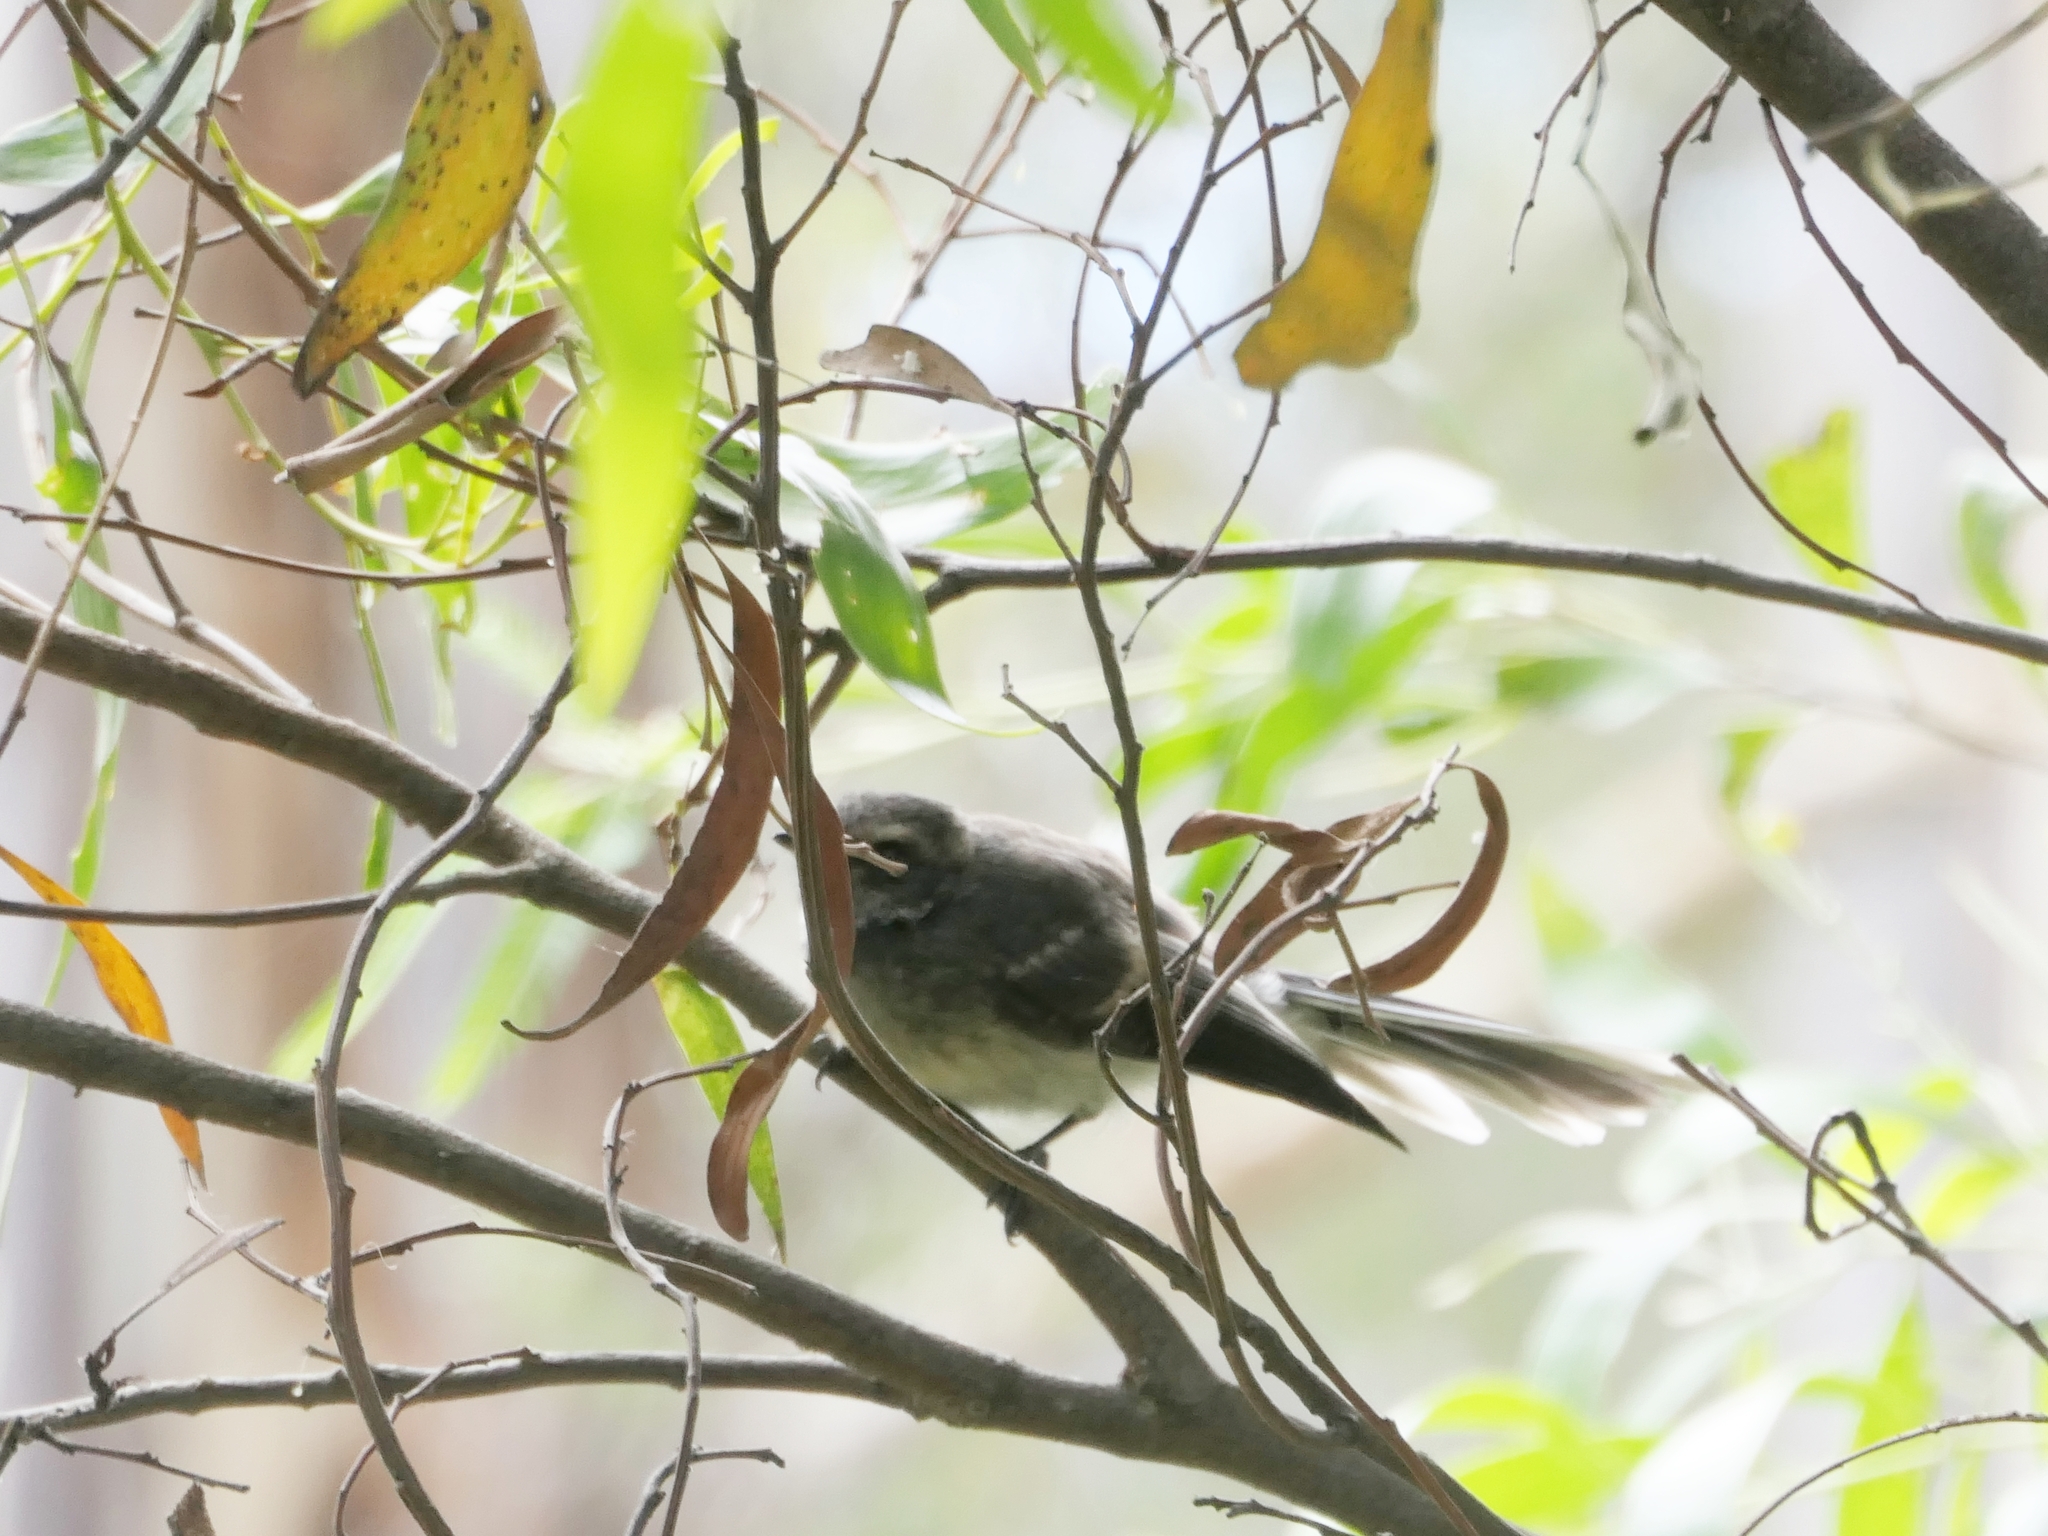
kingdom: Animalia
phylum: Chordata
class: Aves
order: Passeriformes
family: Rhipiduridae
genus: Rhipidura
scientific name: Rhipidura albiscapa
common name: Grey fantail
